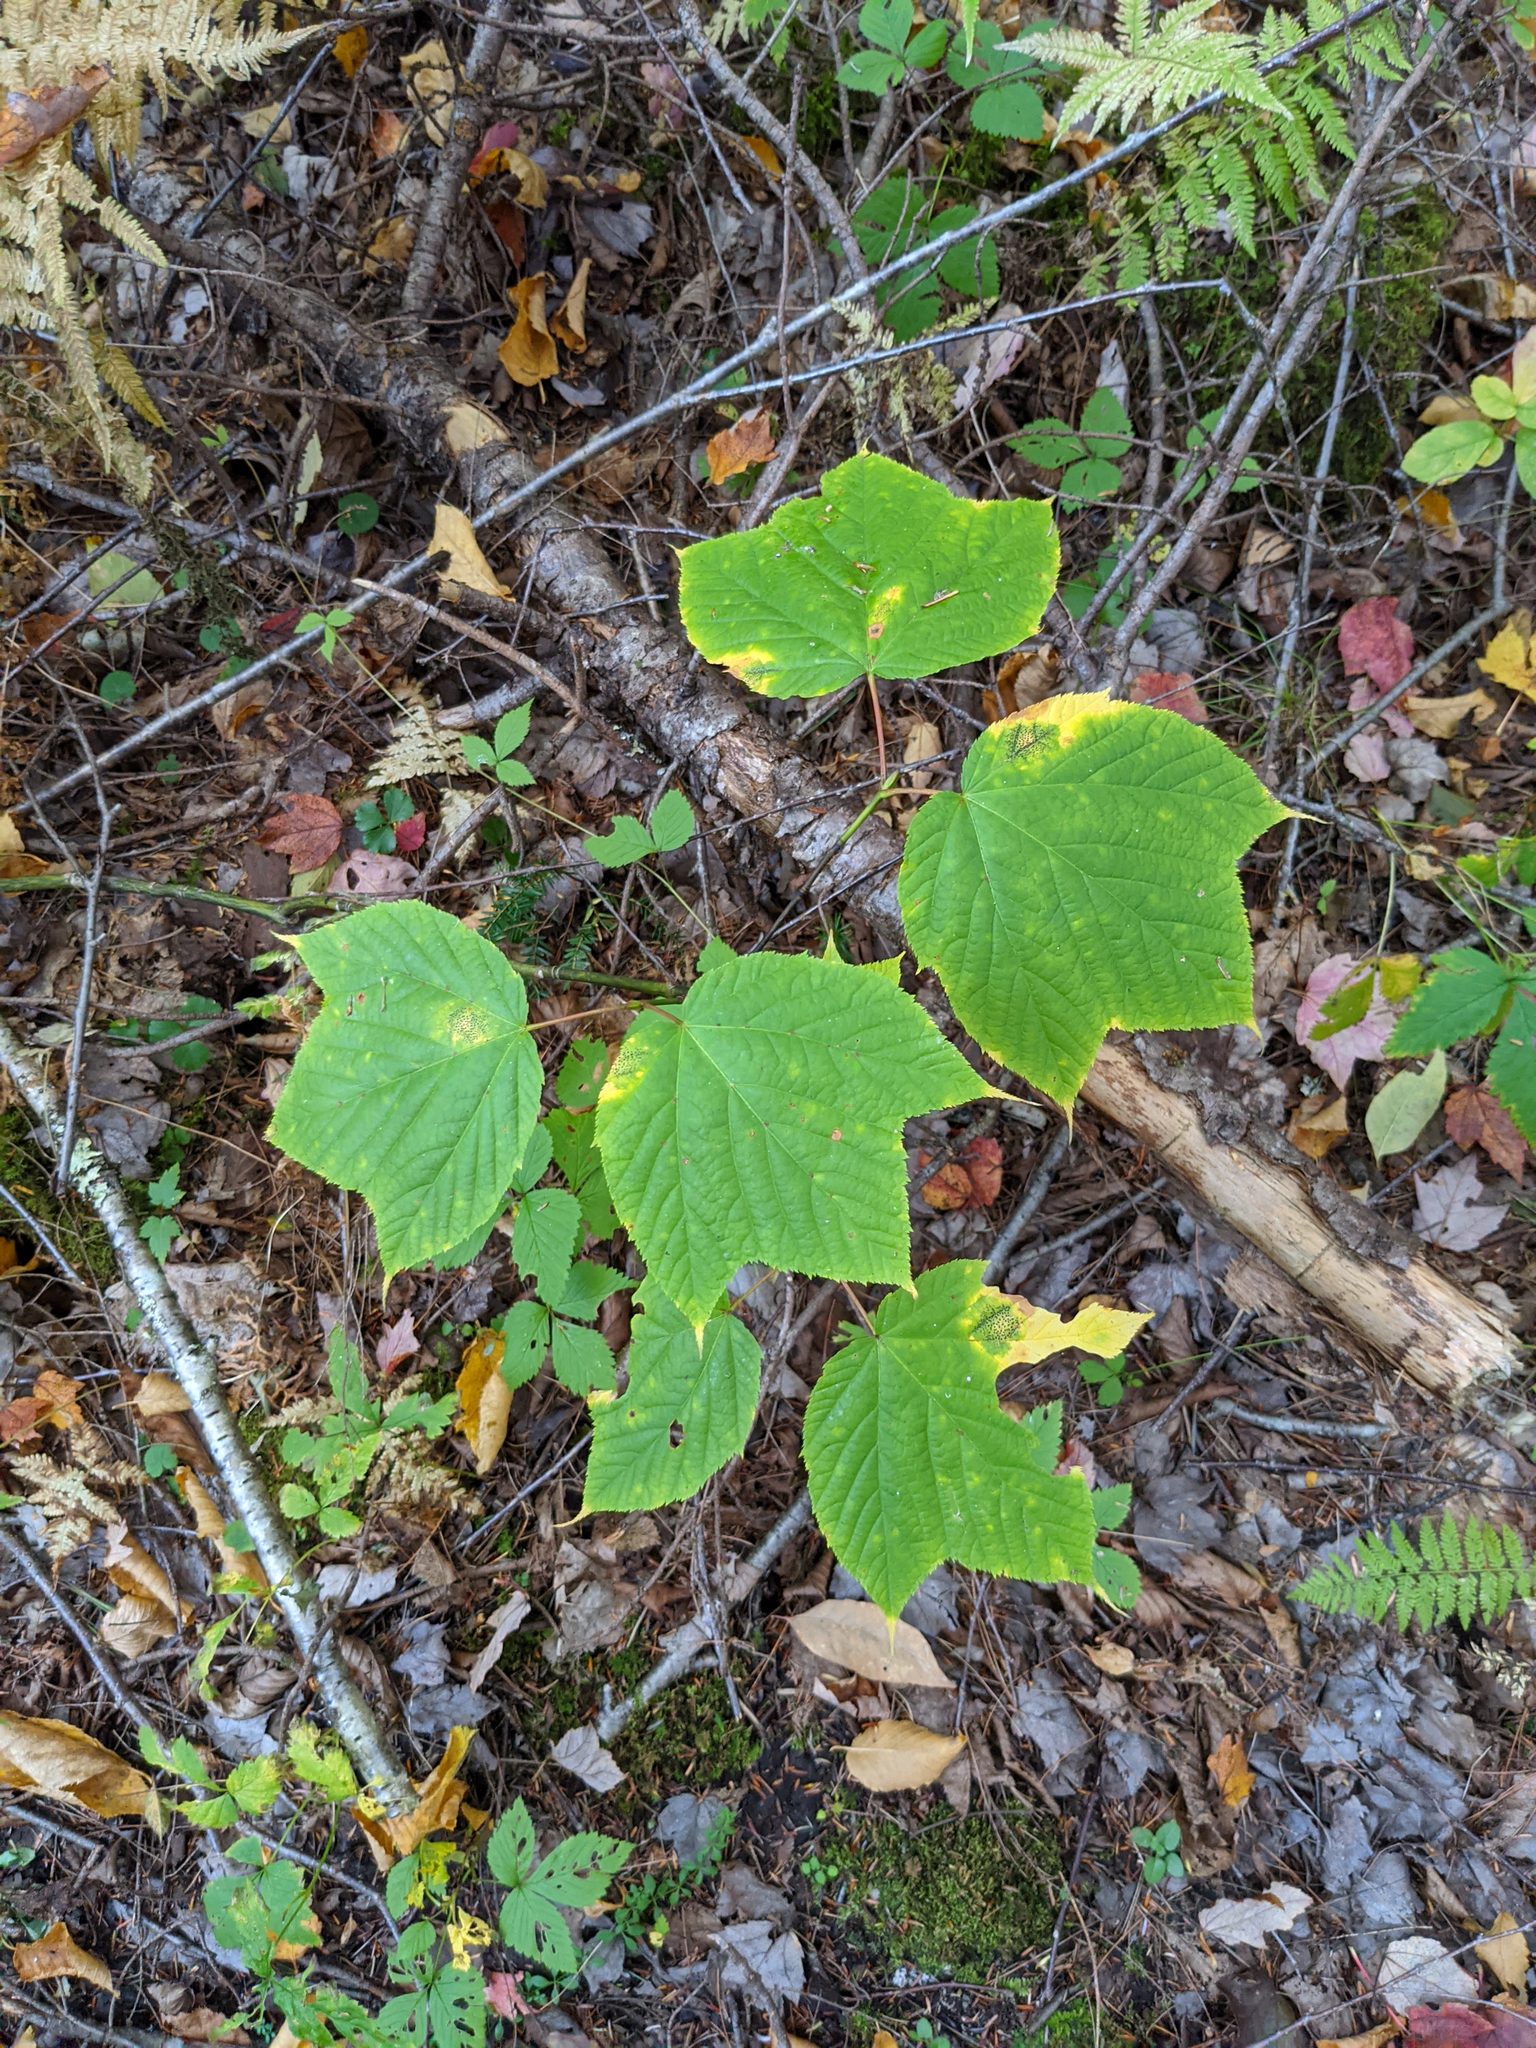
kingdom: Plantae
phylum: Tracheophyta
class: Magnoliopsida
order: Sapindales
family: Sapindaceae
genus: Acer
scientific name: Acer pensylvanicum
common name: Moosewood
